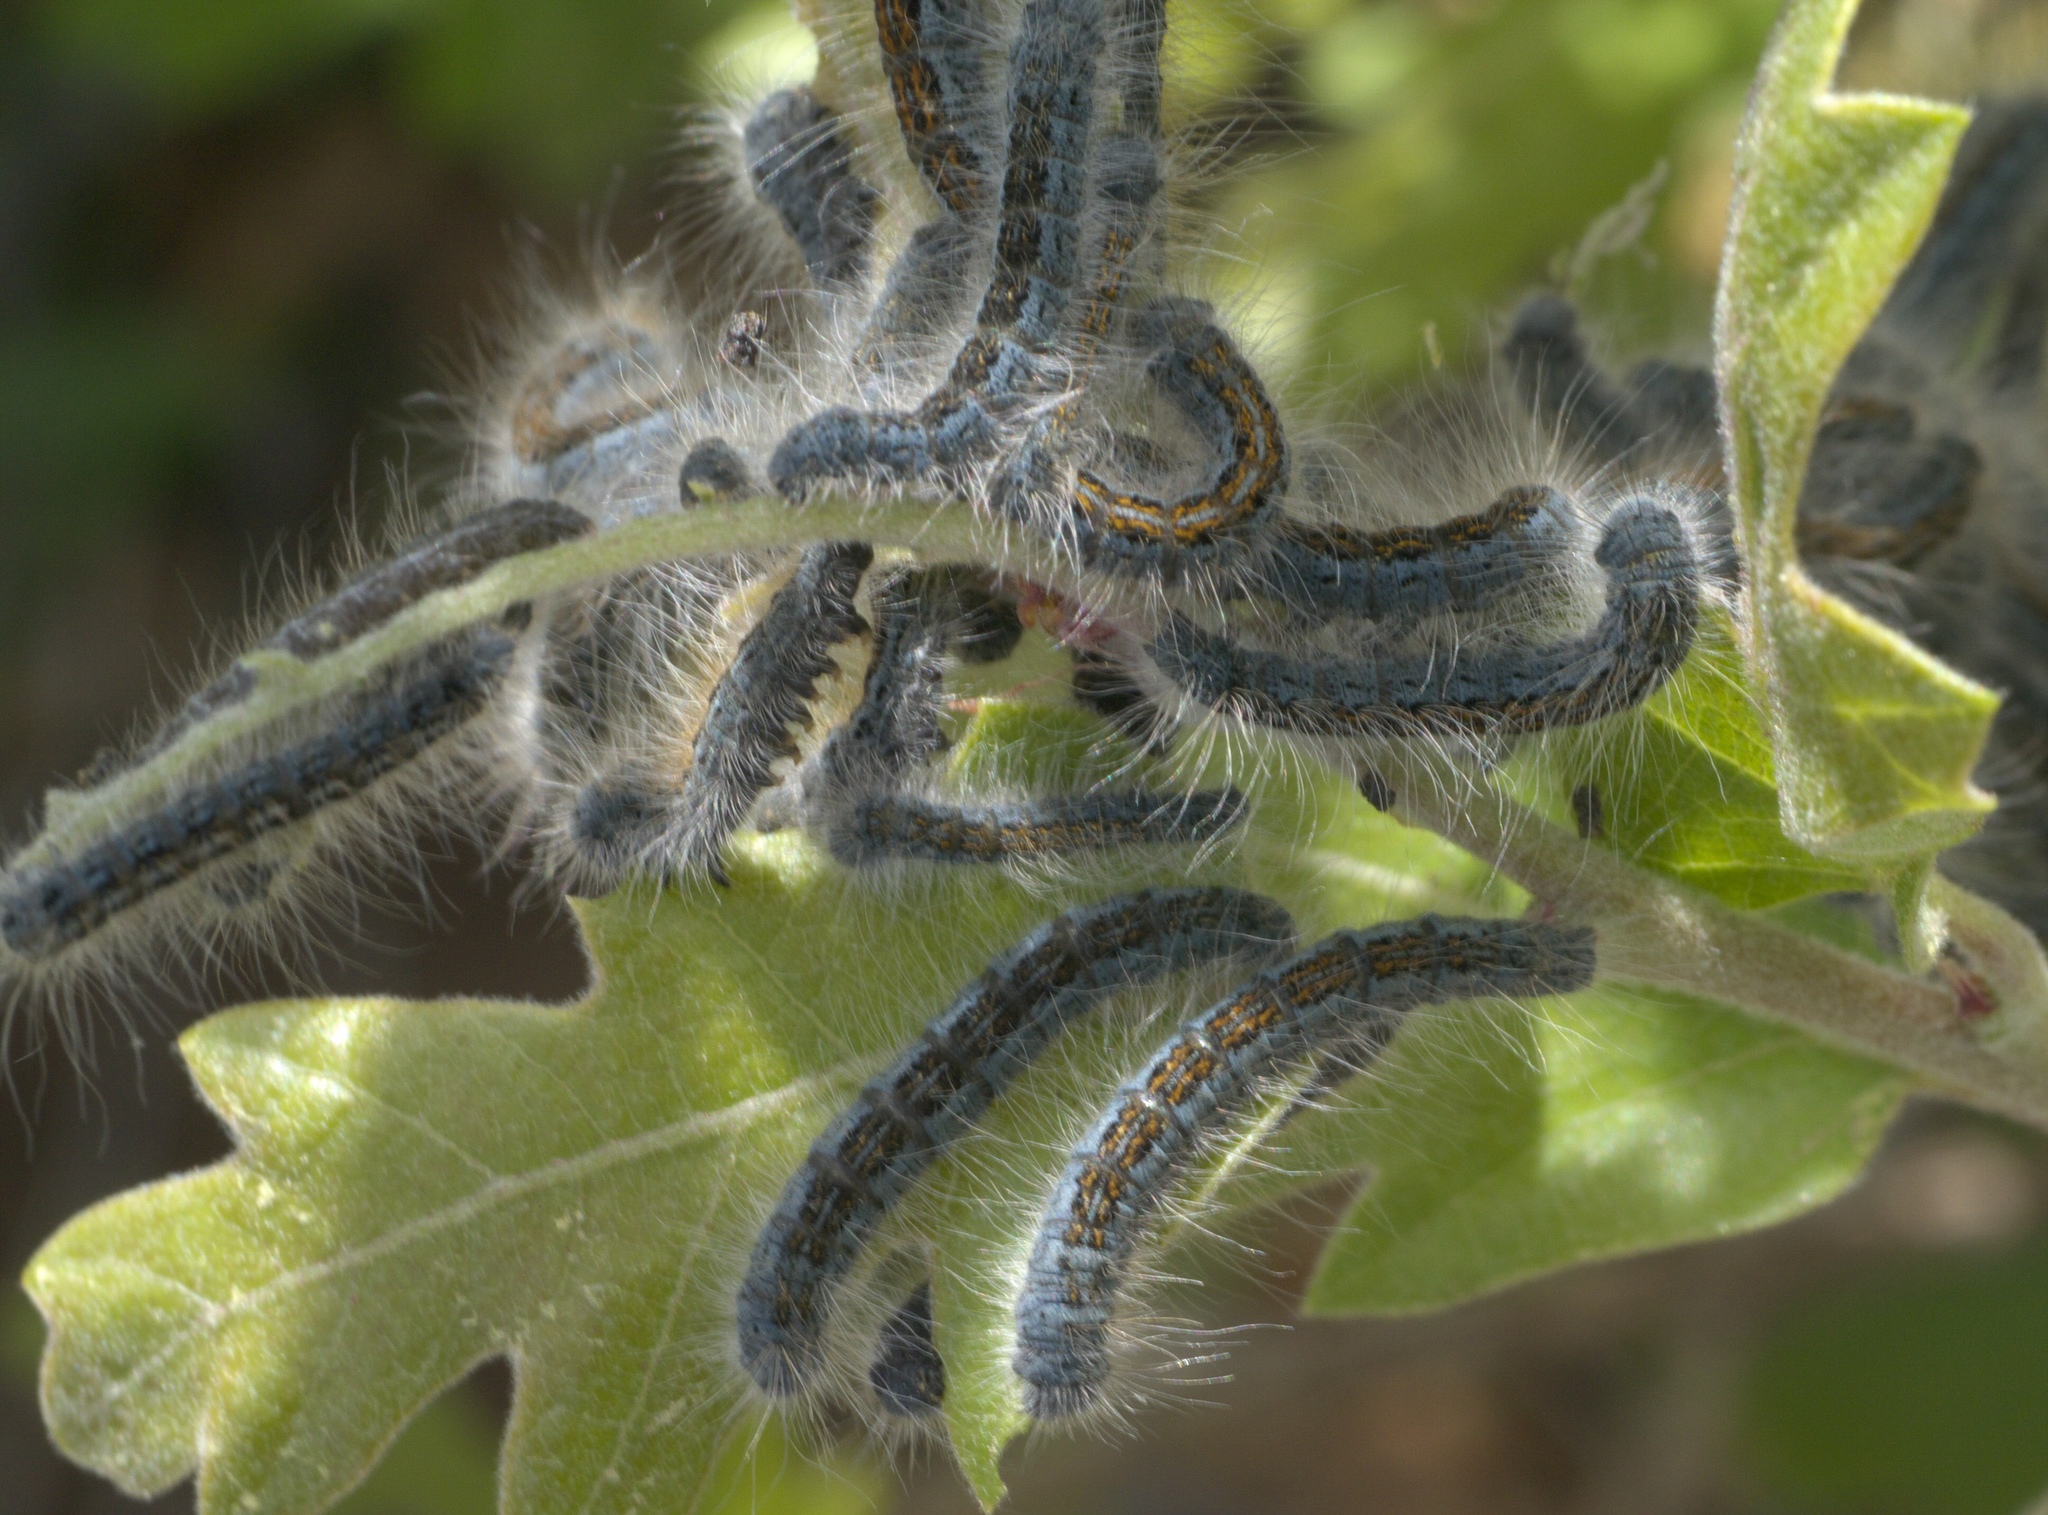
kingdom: Animalia
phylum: Arthropoda
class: Insecta
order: Lepidoptera
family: Lasiocampidae
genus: Malacosoma
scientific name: Malacosoma californica
